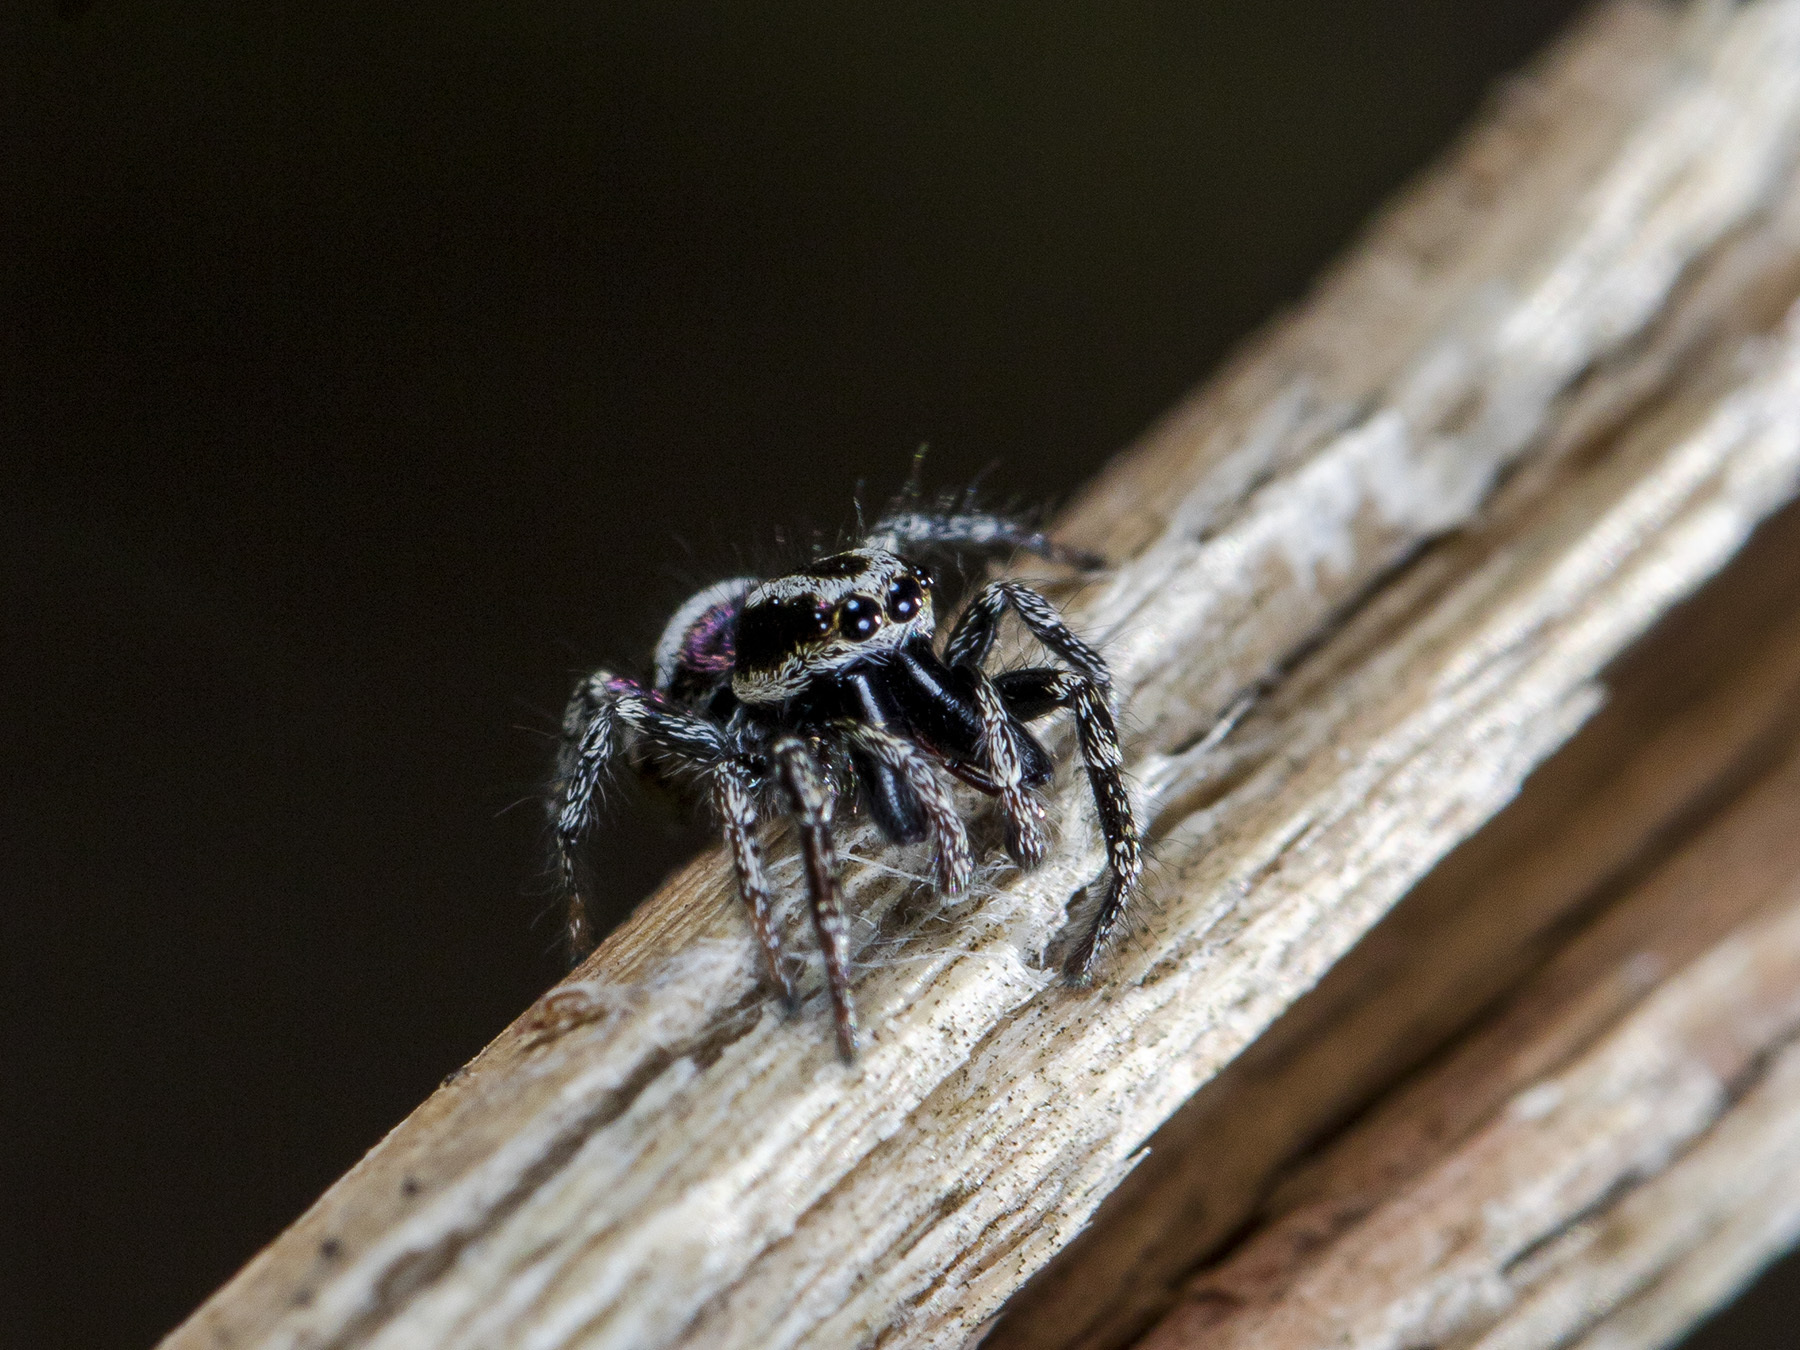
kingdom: Animalia
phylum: Arthropoda
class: Arachnida
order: Araneae
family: Salticidae
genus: Salticus
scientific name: Salticus tricinctus
